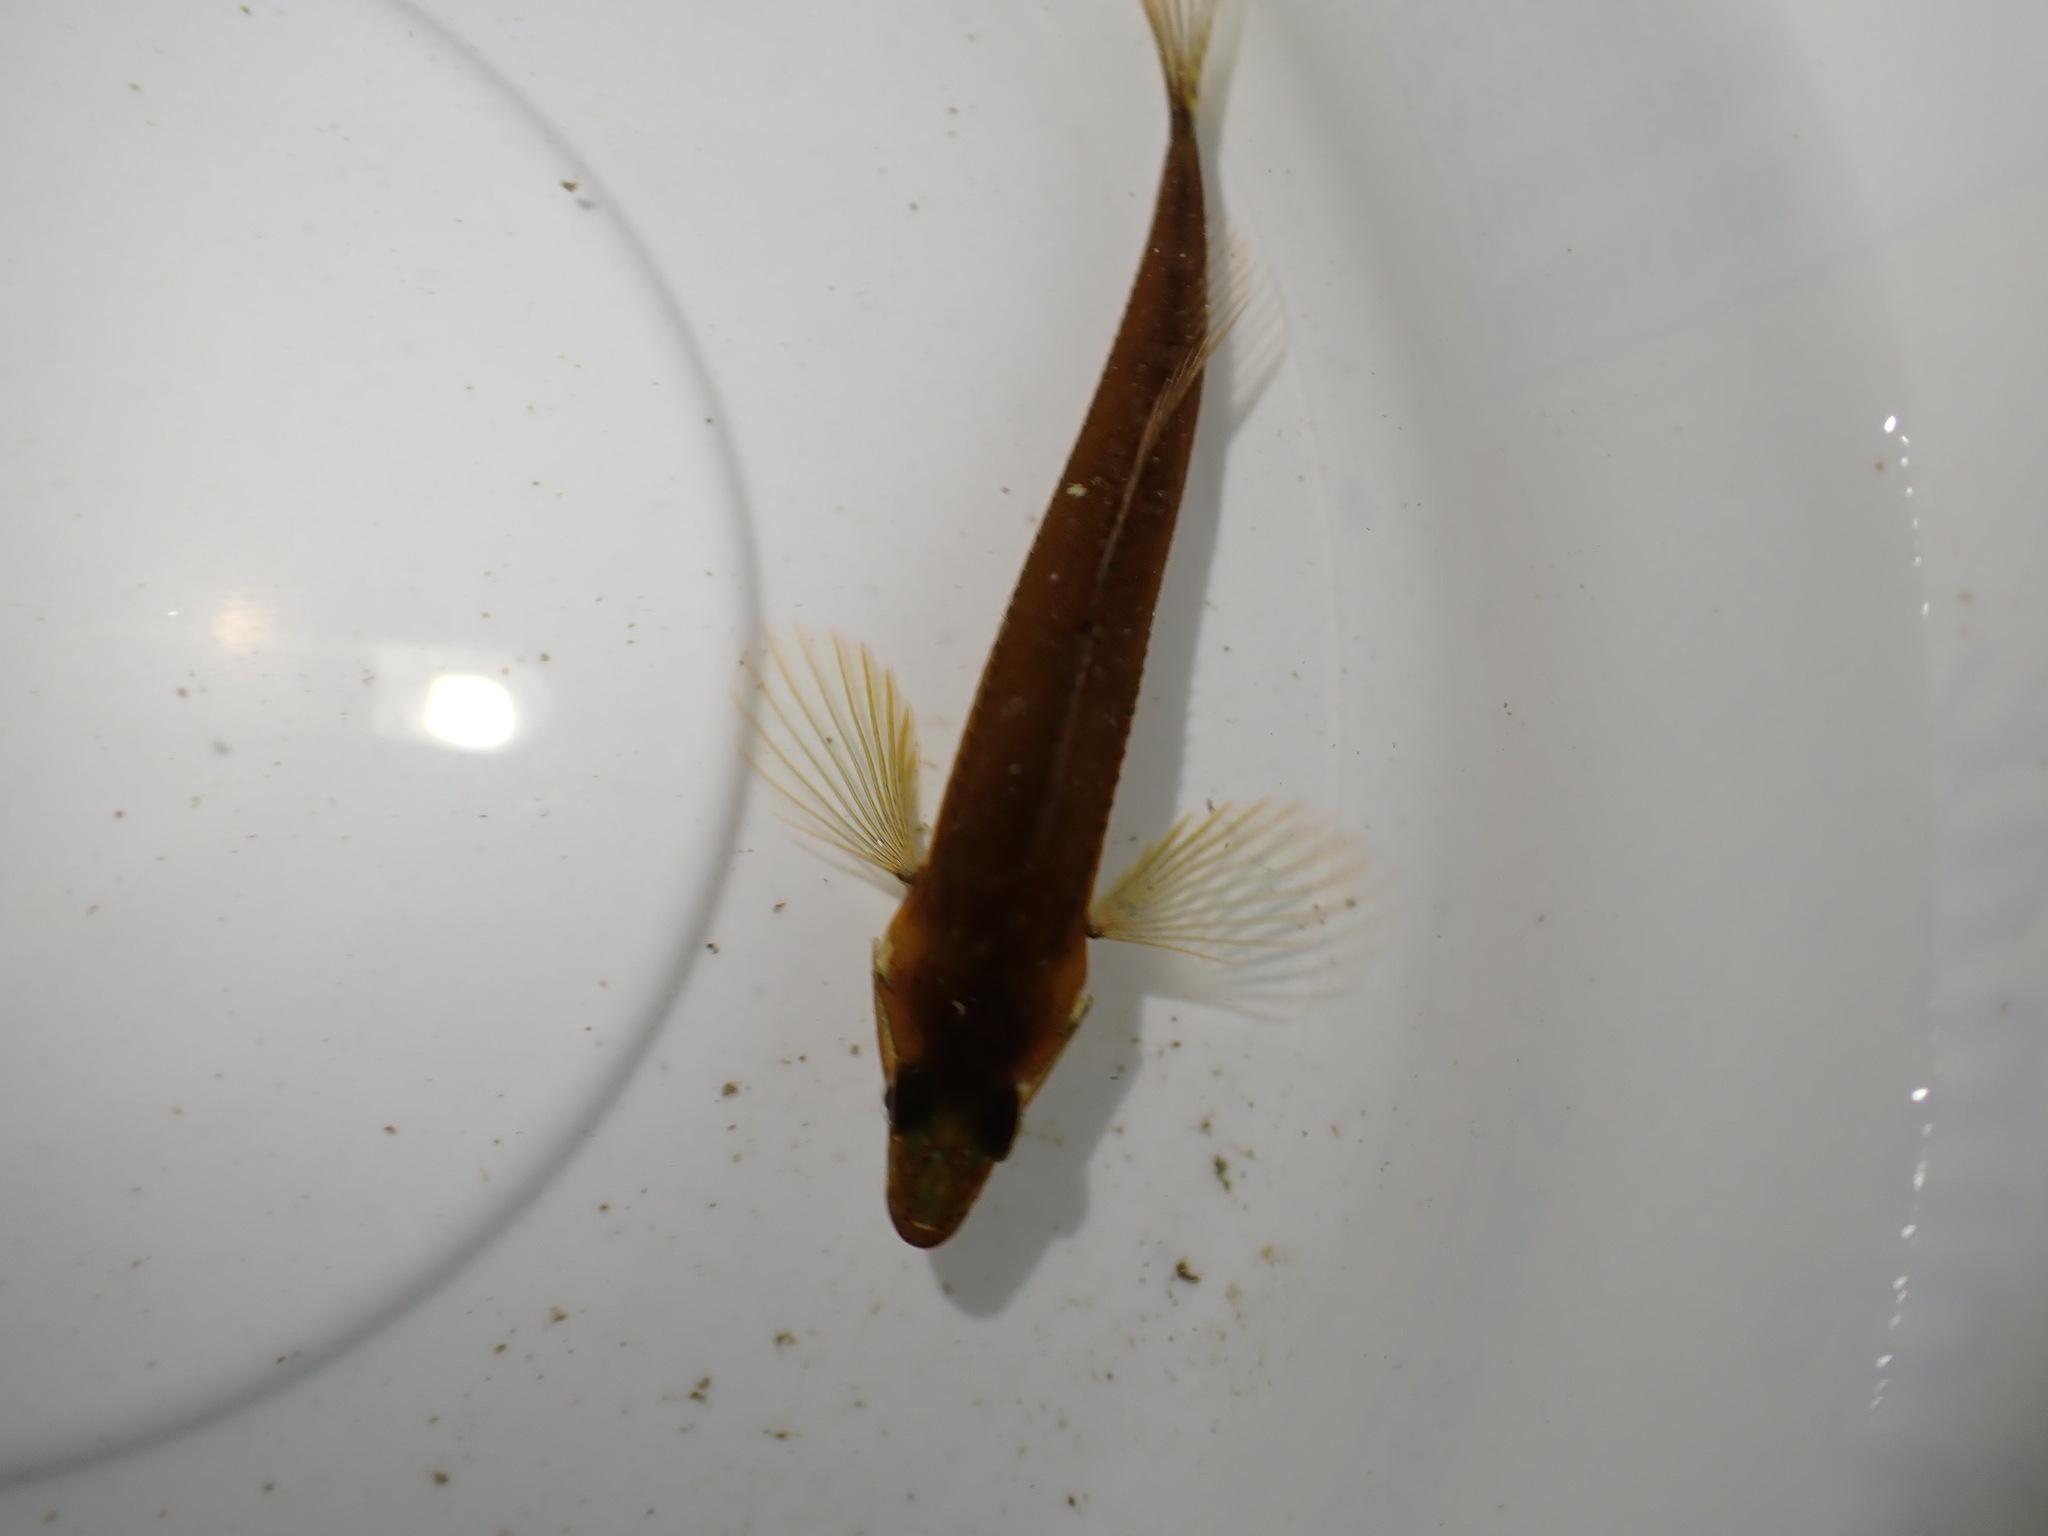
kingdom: Animalia
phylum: Chordata
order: Scorpaeniformes
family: Cottidae
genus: Synchirus
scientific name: Synchirus gilli
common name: Manacled sculpin
